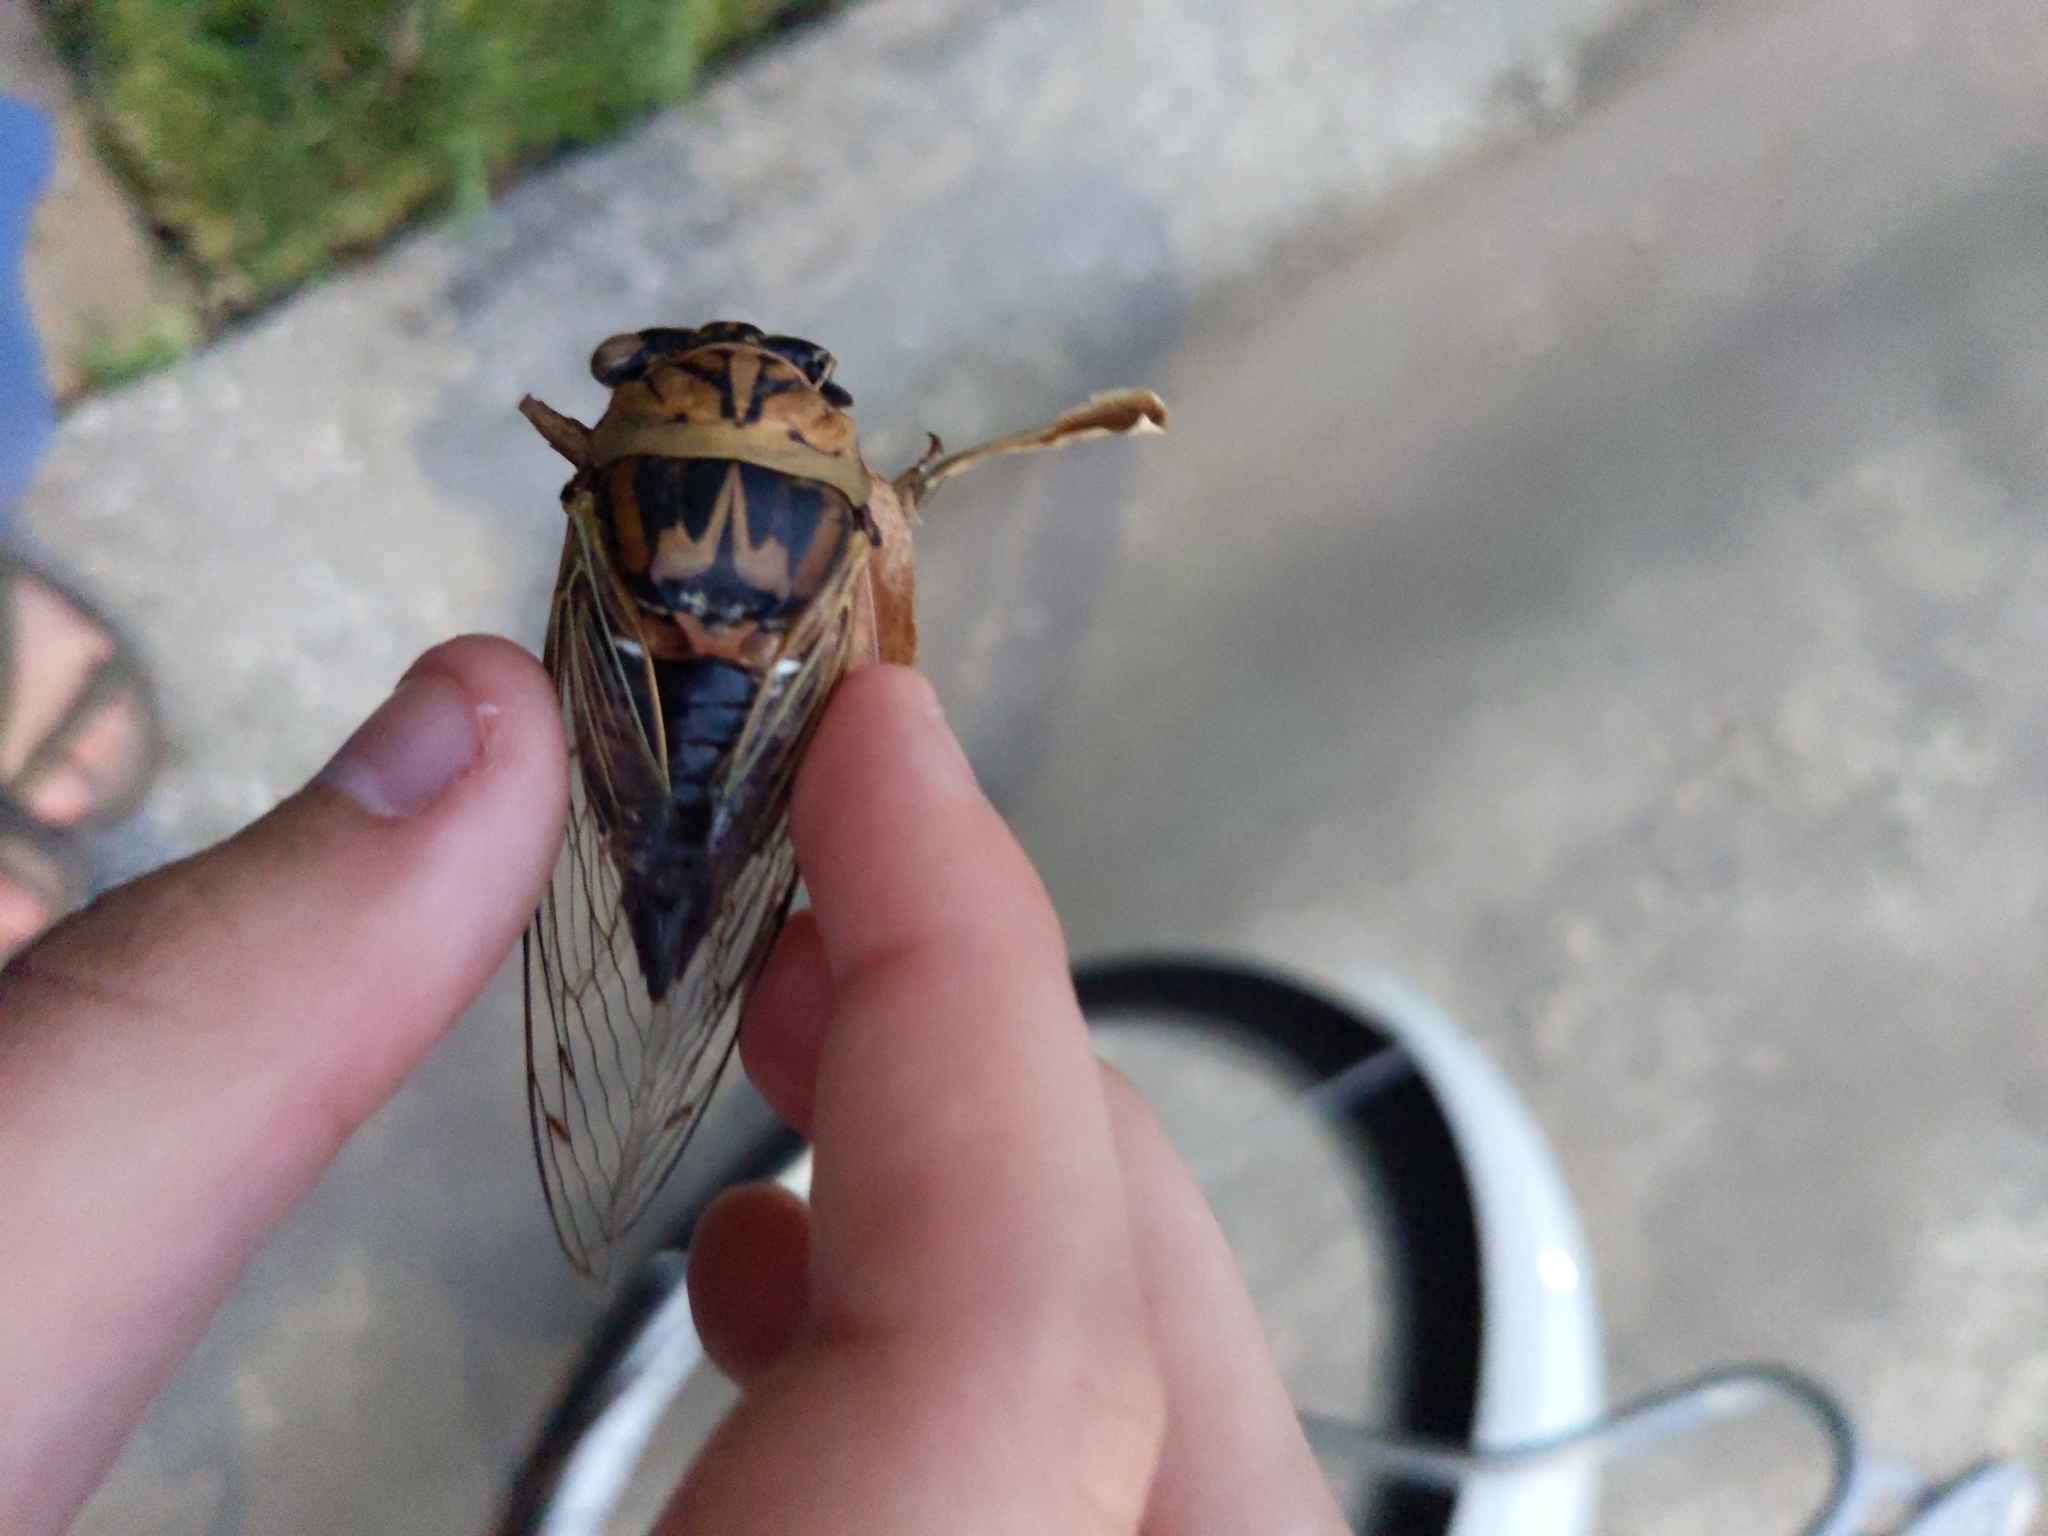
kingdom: Animalia
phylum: Arthropoda
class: Insecta
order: Hemiptera
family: Cicadidae
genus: Megatibicen
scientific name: Megatibicen resh
